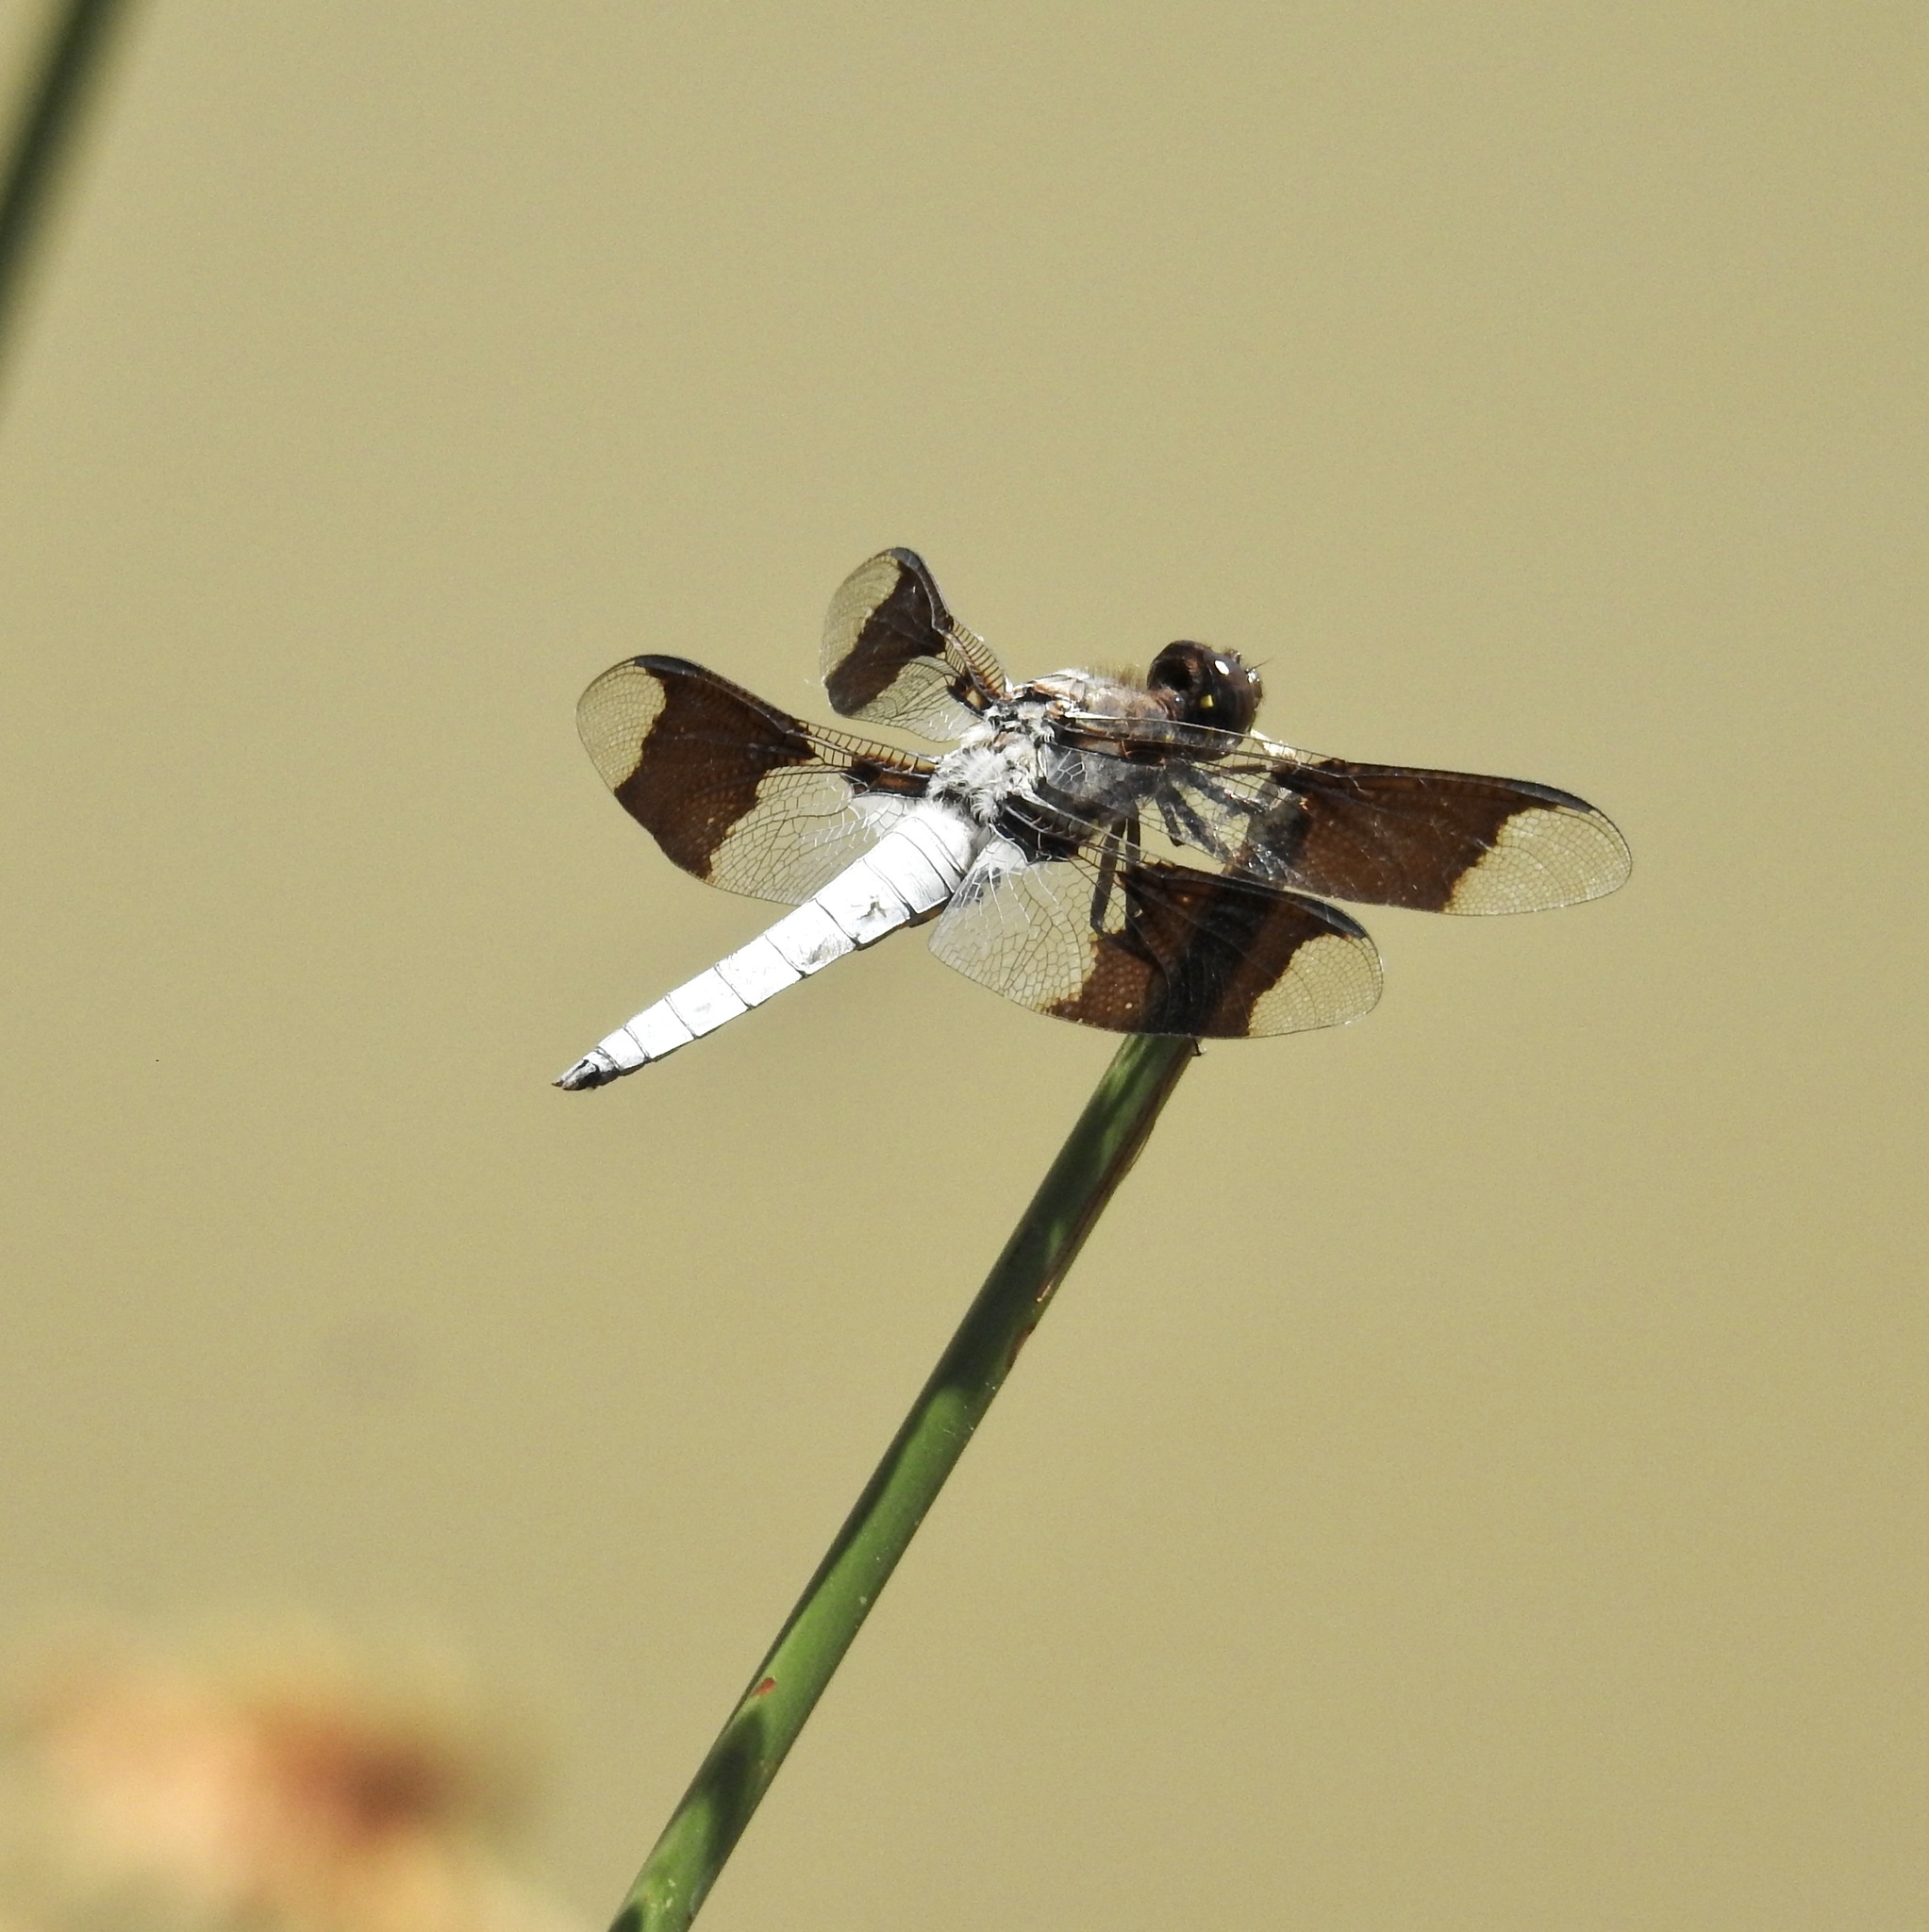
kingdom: Animalia
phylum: Arthropoda
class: Insecta
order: Odonata
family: Libellulidae
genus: Plathemis
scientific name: Plathemis lydia
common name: Common whitetail
